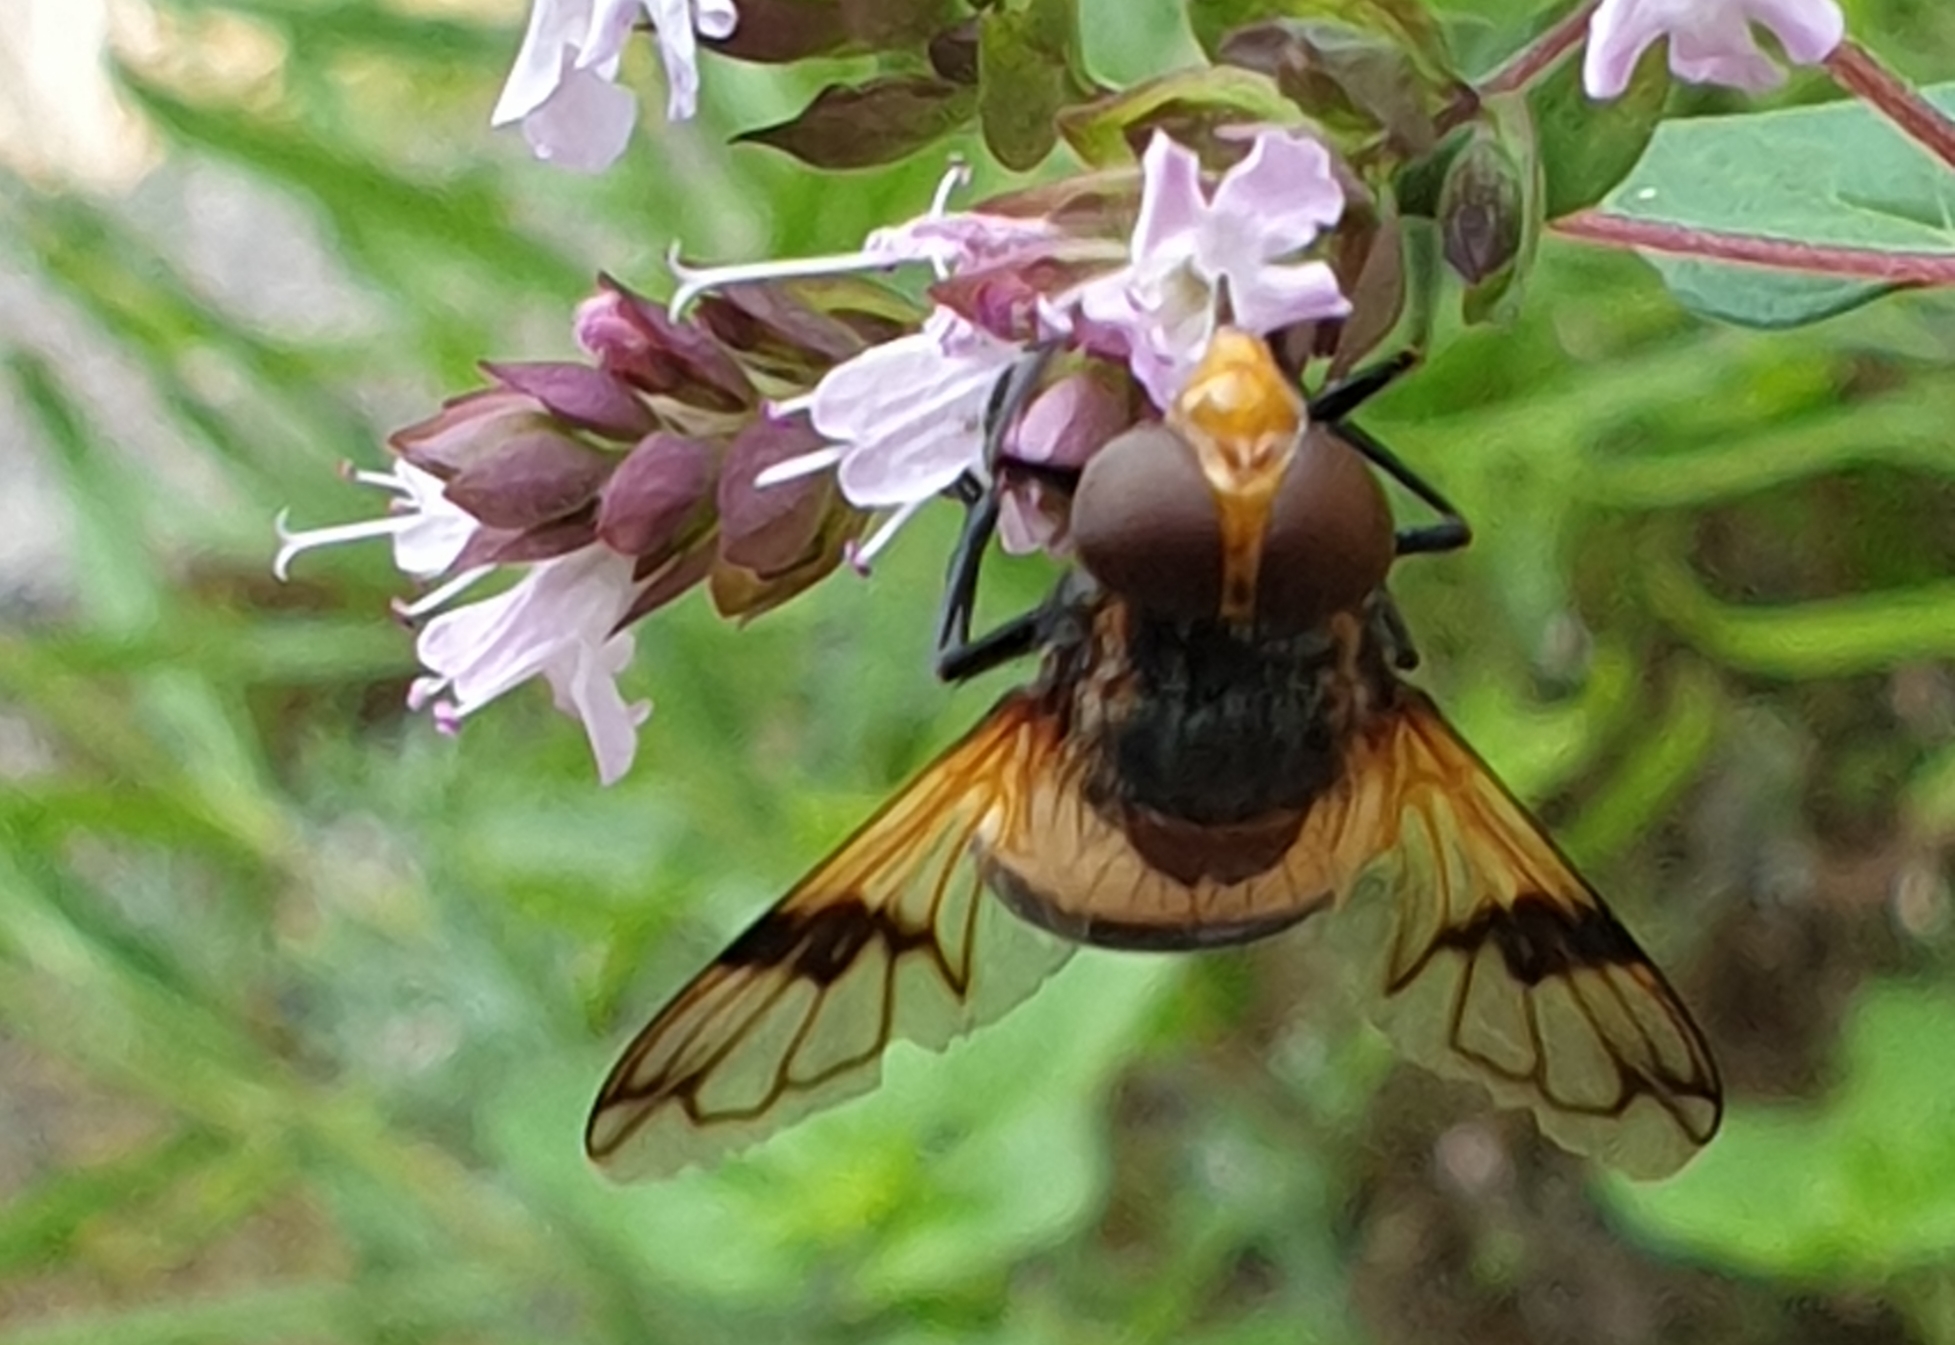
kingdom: Animalia
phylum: Arthropoda
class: Insecta
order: Diptera
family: Syrphidae
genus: Volucella
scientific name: Volucella pellucens
